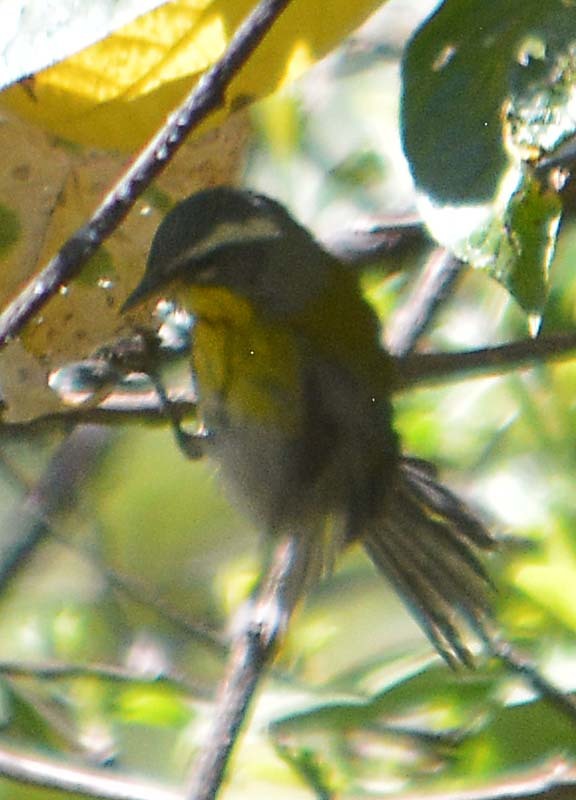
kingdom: Animalia
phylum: Chordata
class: Aves
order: Passeriformes
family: Parulidae
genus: Oreothlypis
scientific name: Oreothlypis superciliosa
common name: Crescent-chested warbler
